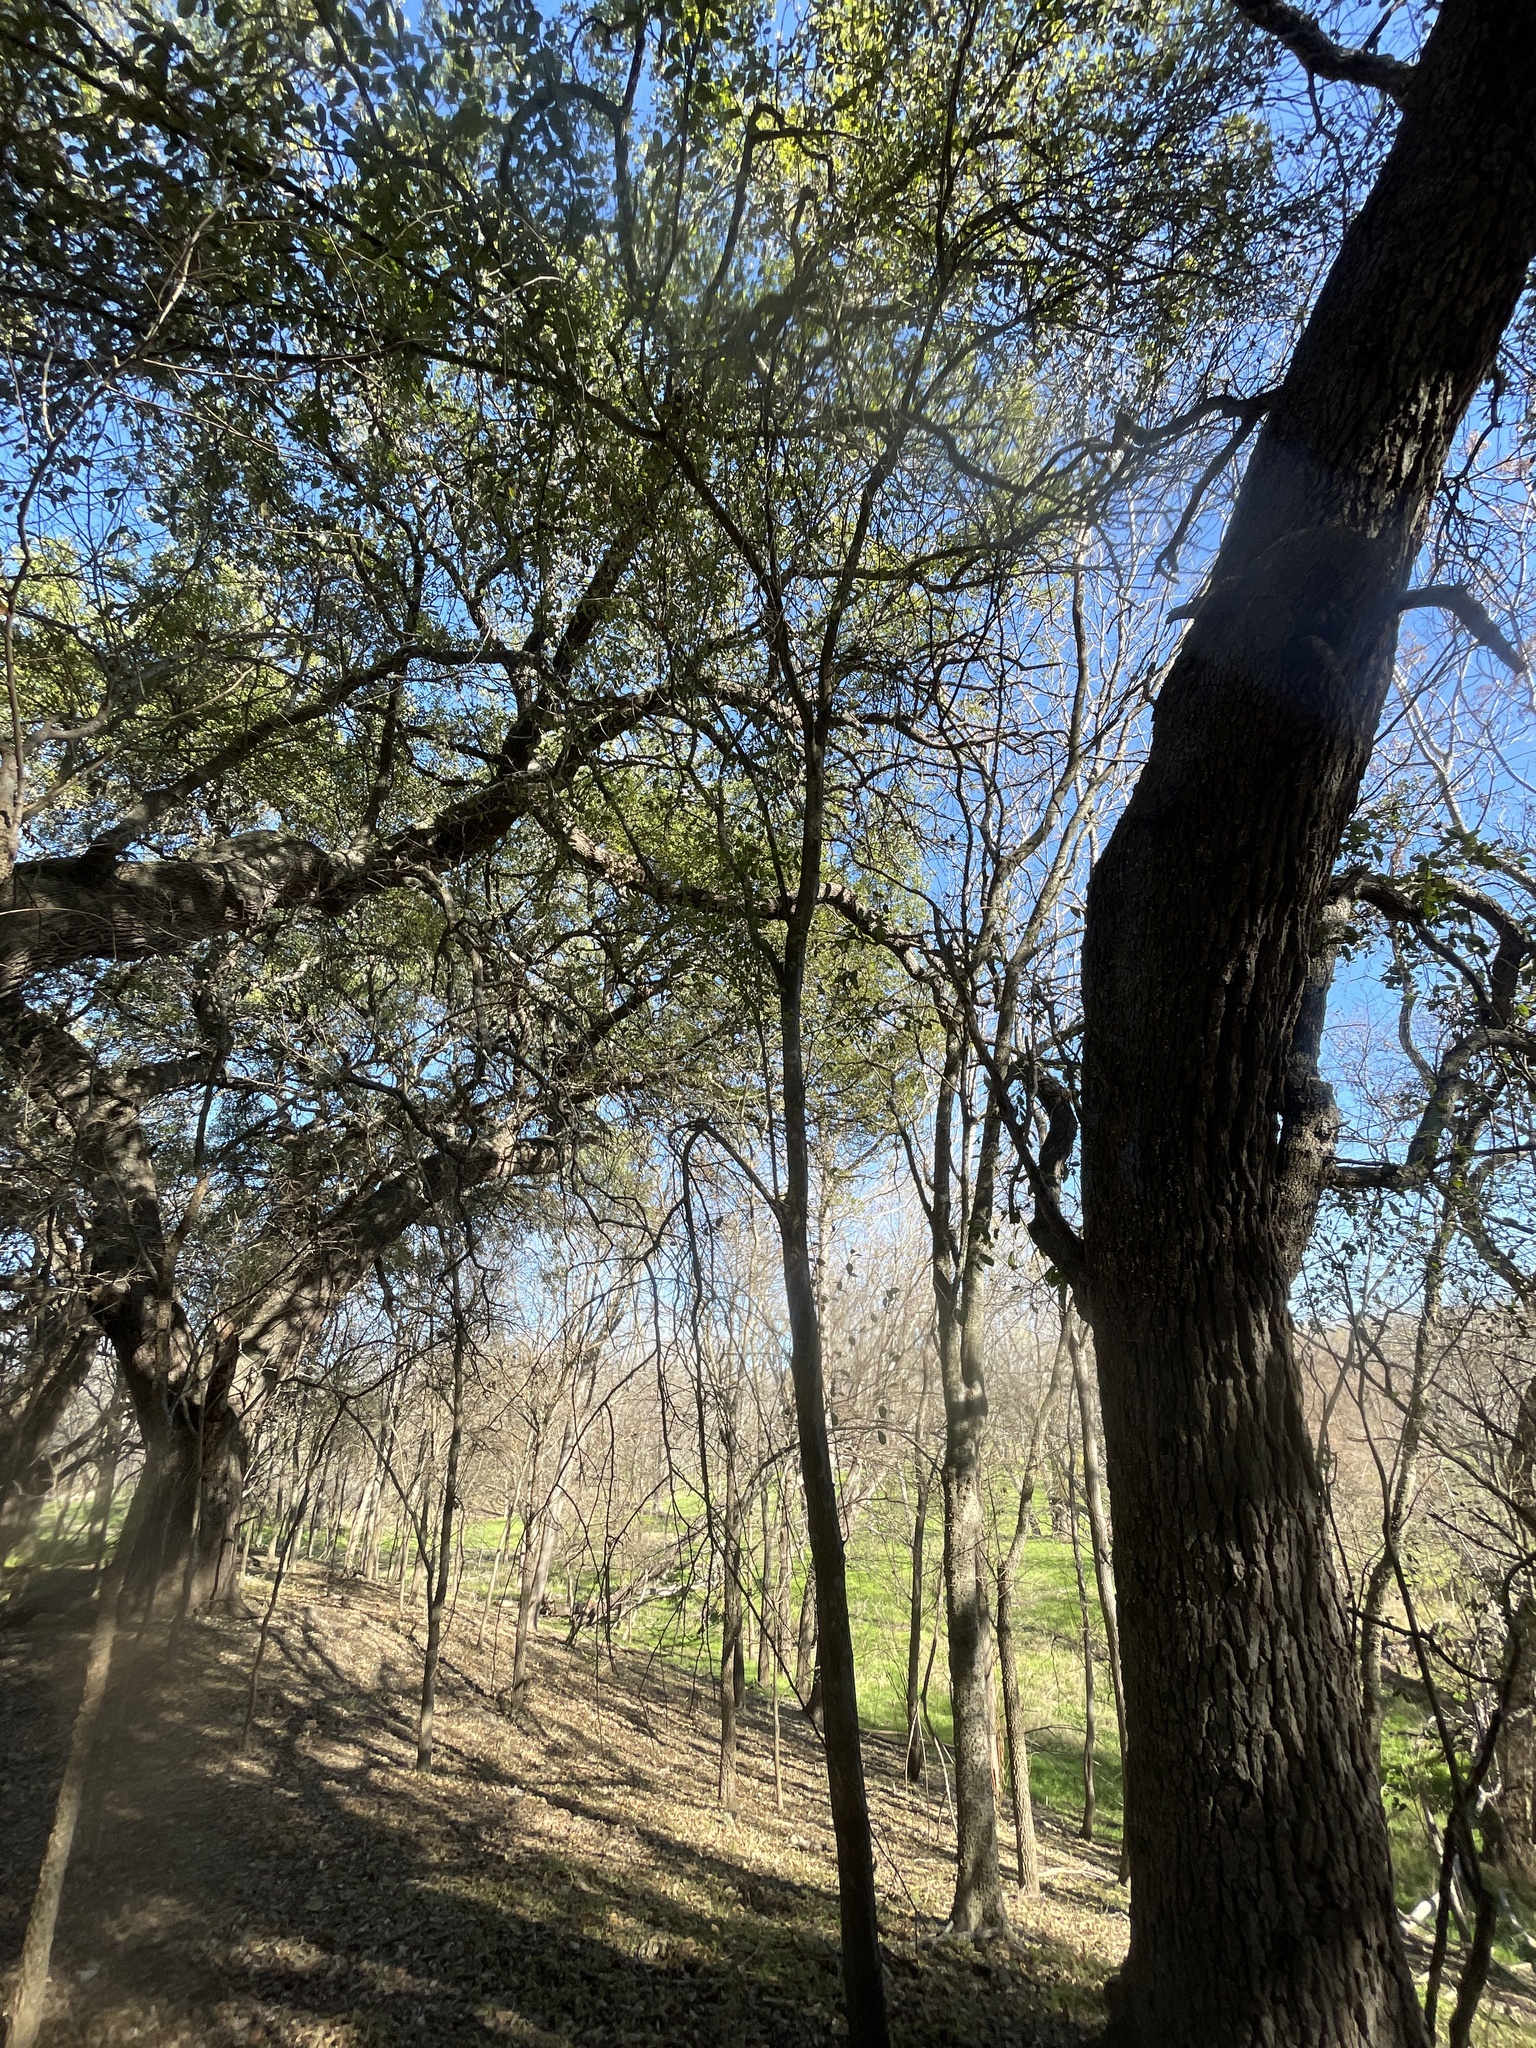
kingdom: Plantae
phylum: Tracheophyta
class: Magnoliopsida
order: Ericales
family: Sapotaceae
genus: Sideroxylon
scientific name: Sideroxylon lanuginosum
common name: Chittamwood
